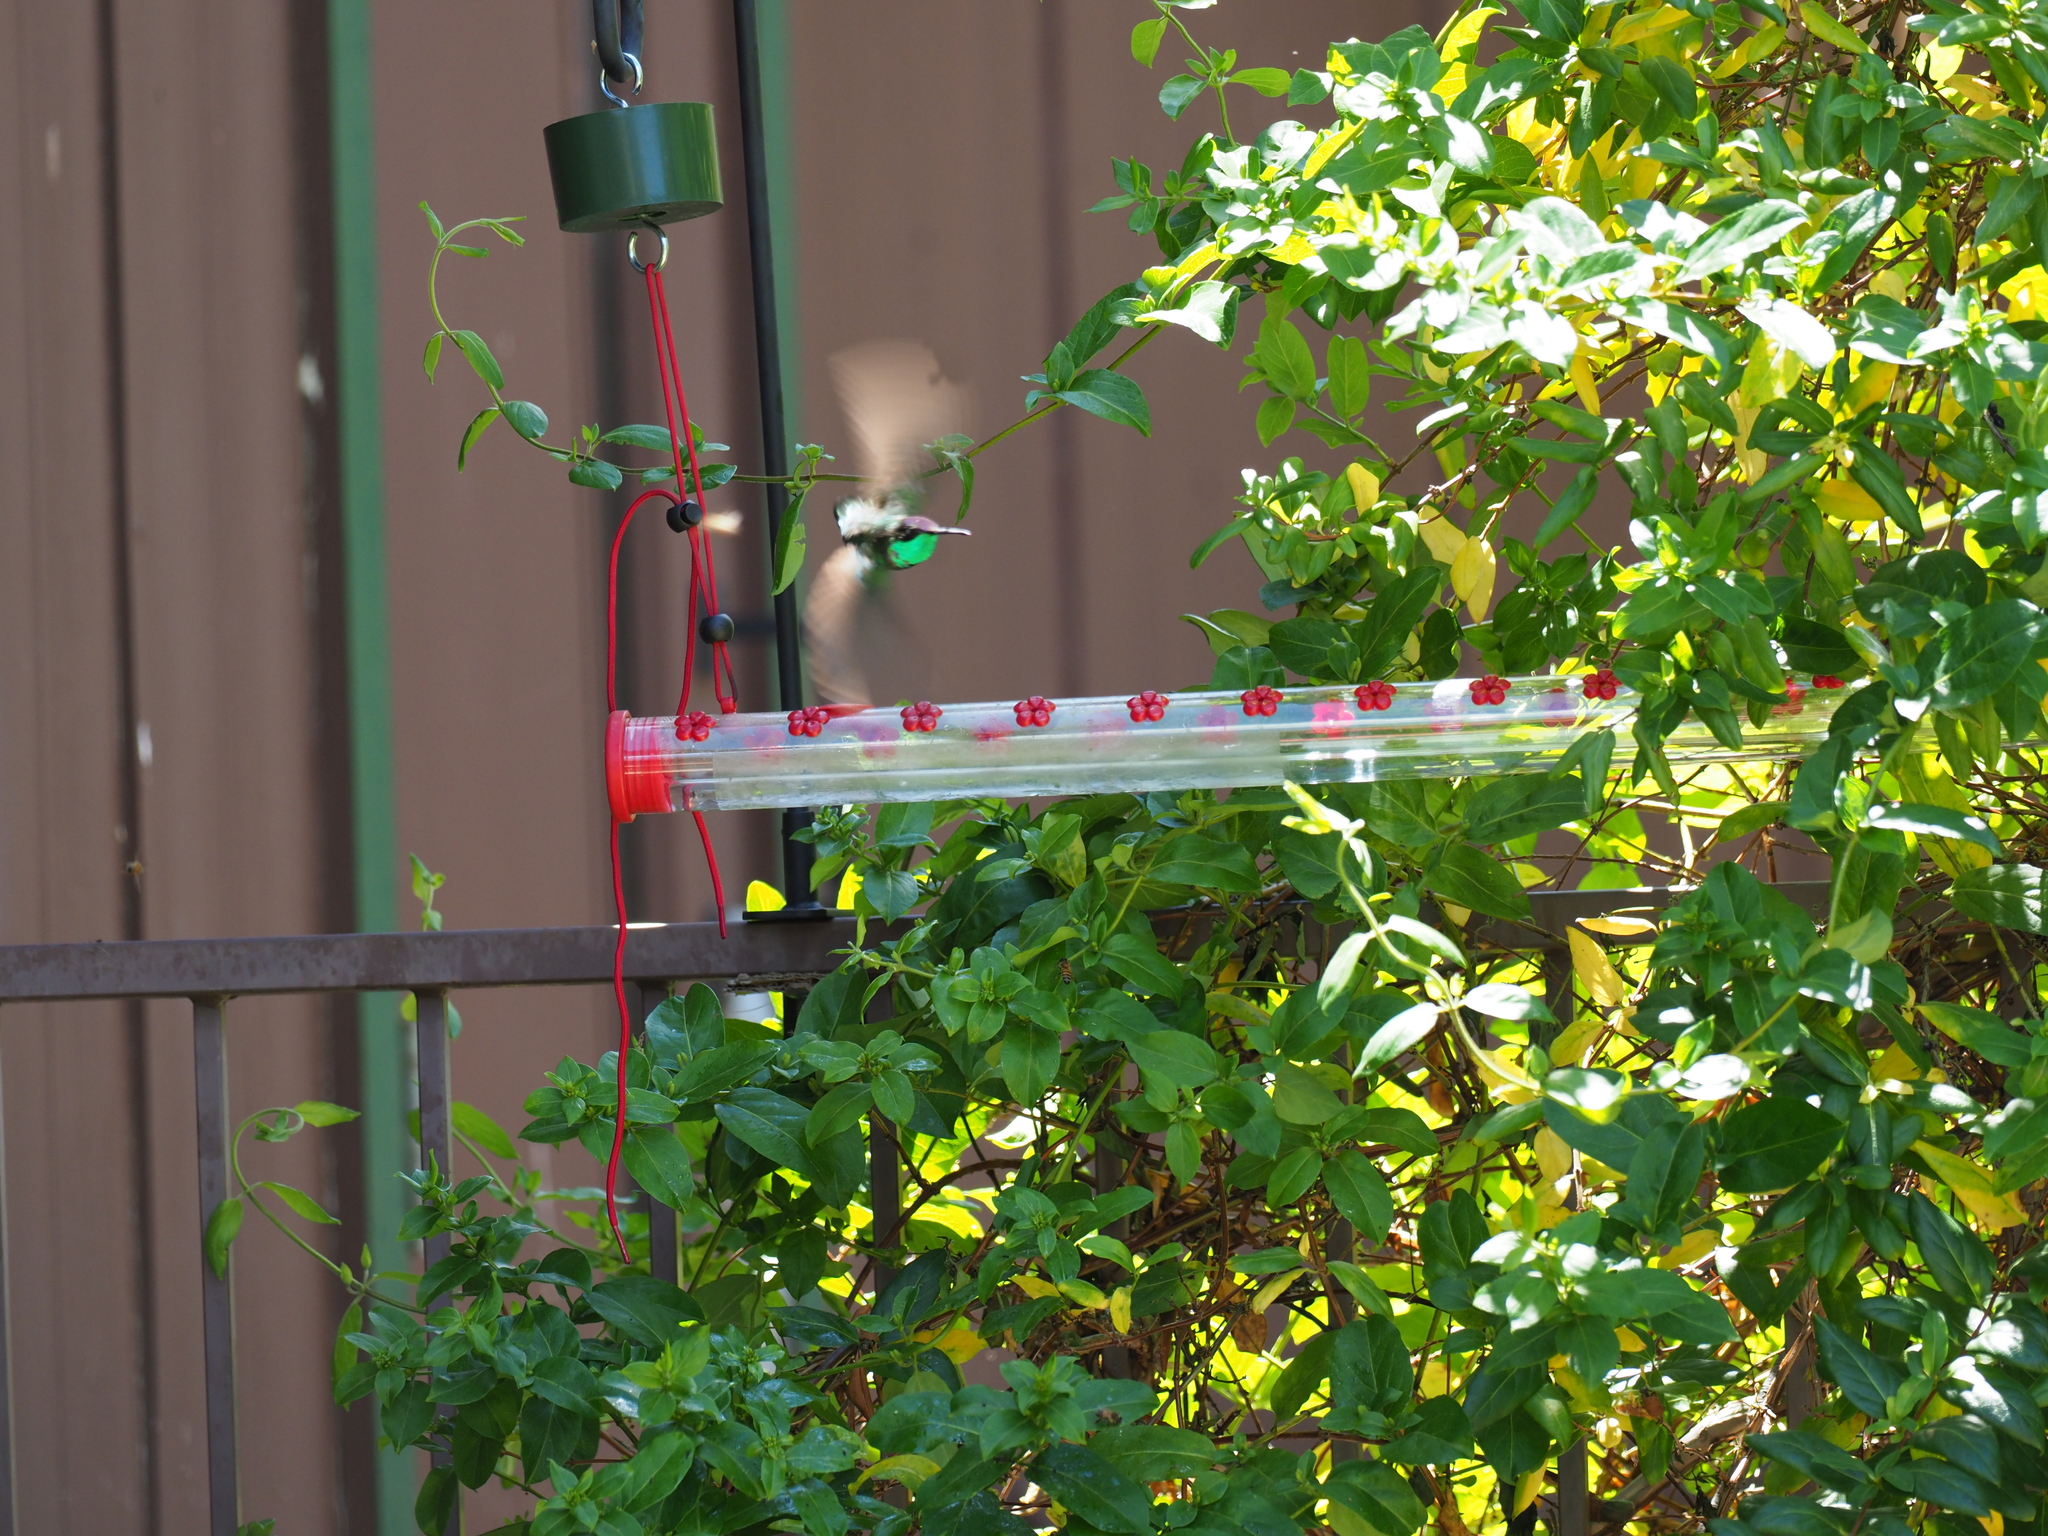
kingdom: Animalia
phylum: Chordata
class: Aves
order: Apodiformes
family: Trochilidae
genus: Eugenes
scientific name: Eugenes fulgens
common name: Magnificent hummingbird
